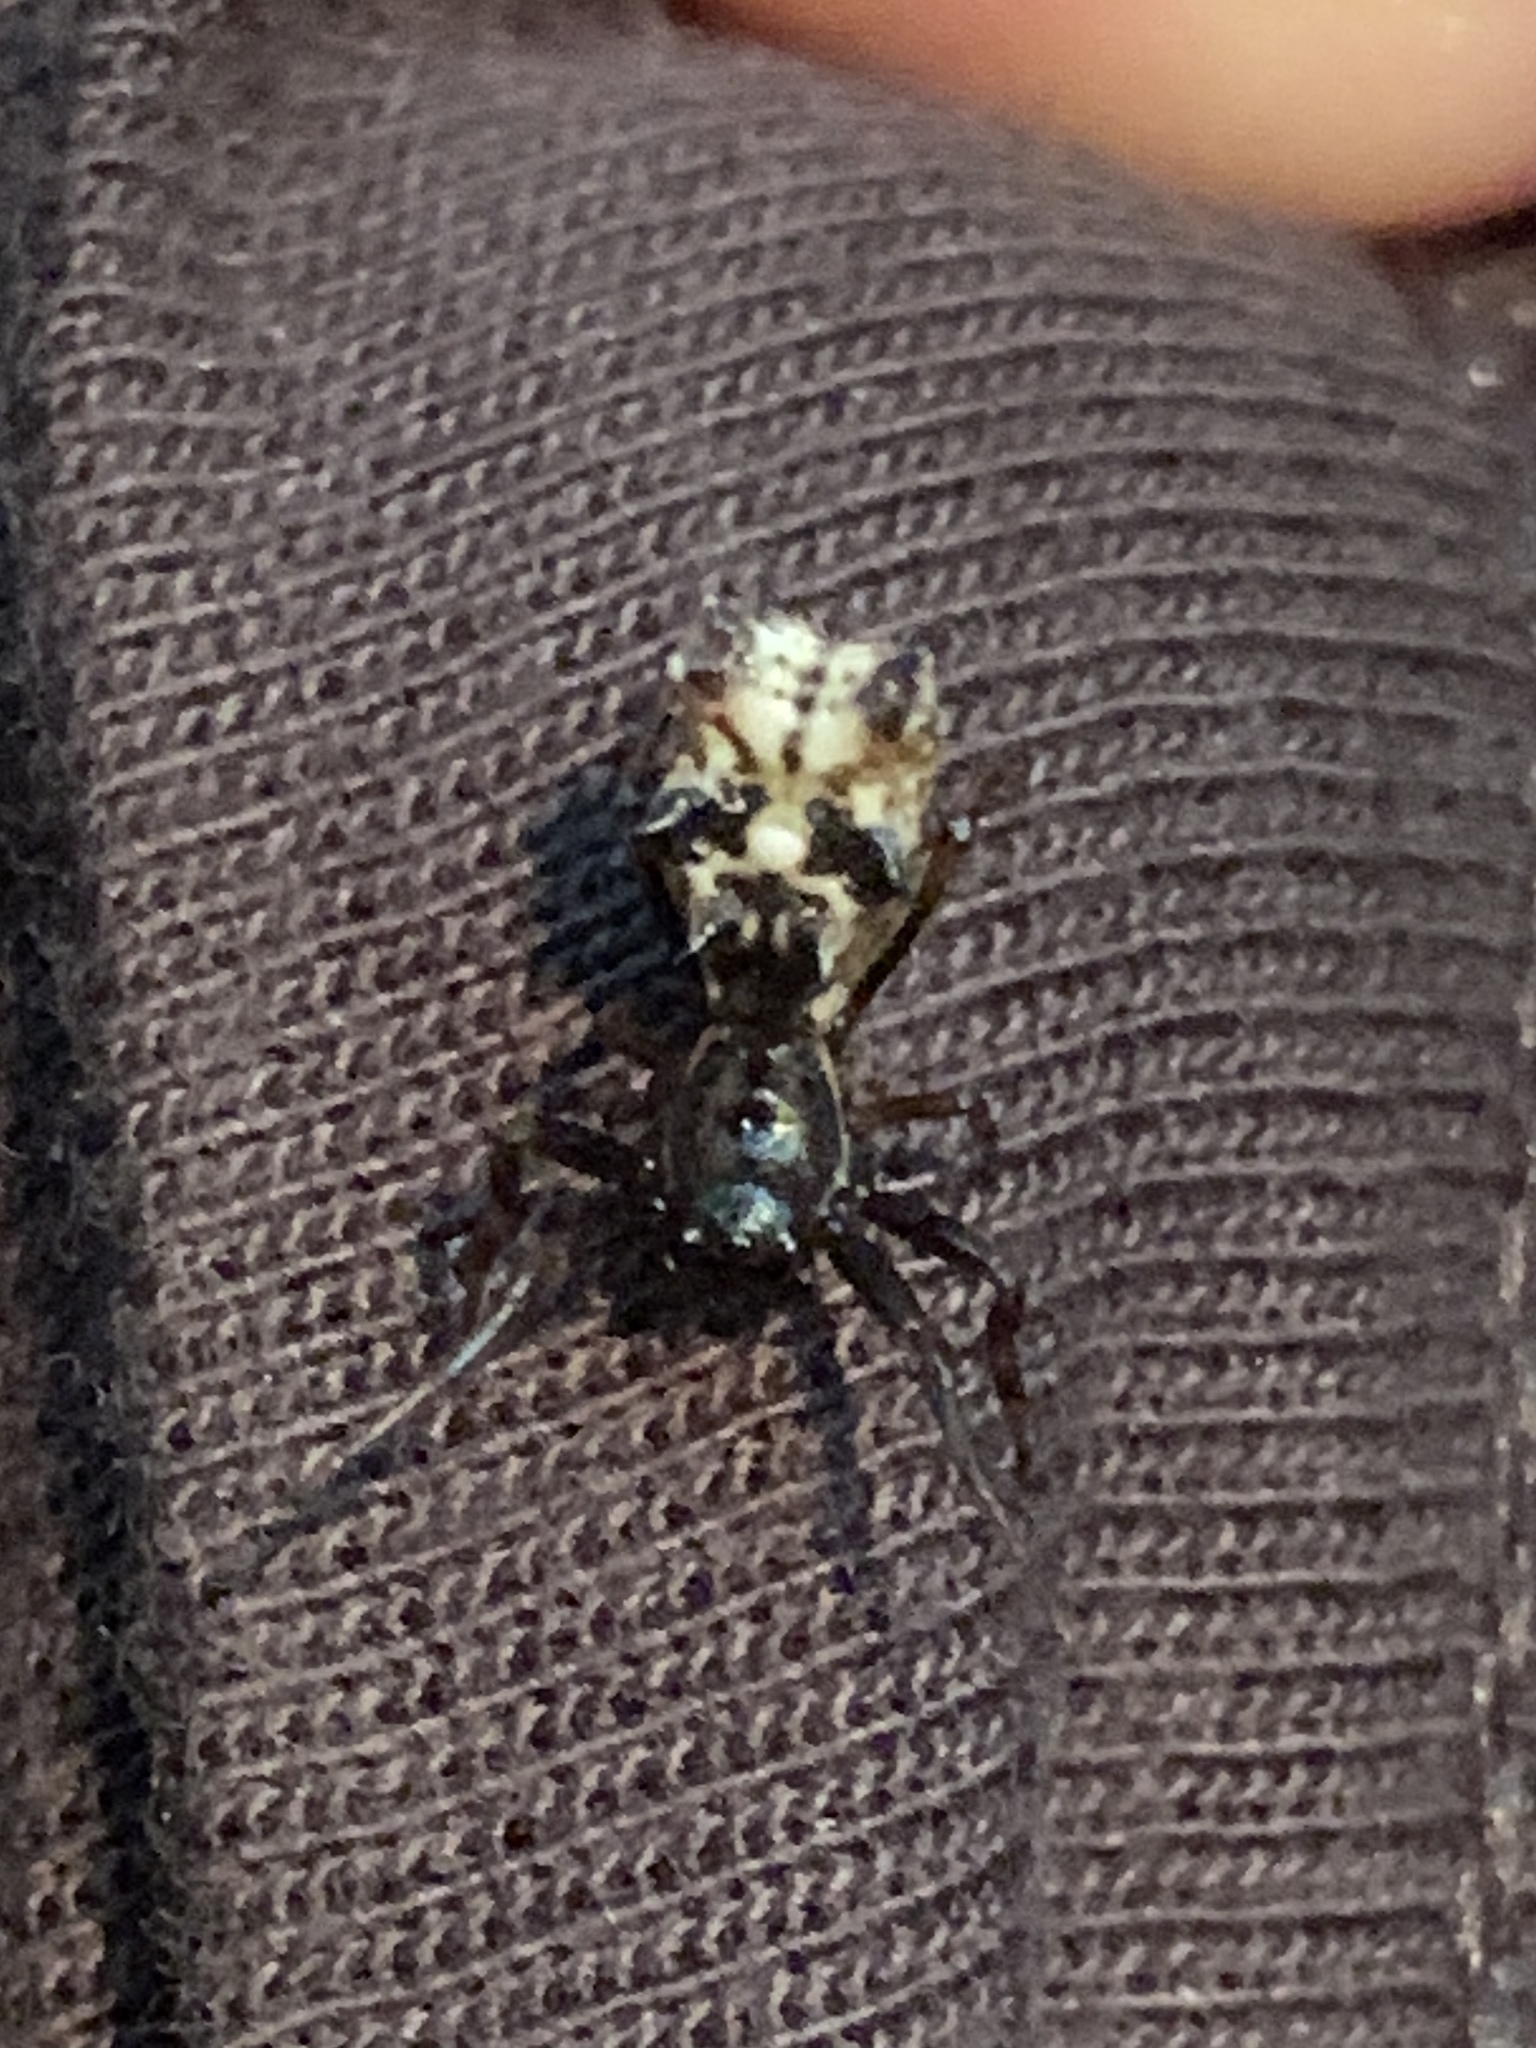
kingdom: Animalia
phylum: Arthropoda
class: Arachnida
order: Araneae
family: Araneidae
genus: Micrathena
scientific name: Micrathena gracilis
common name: Orb weavers
